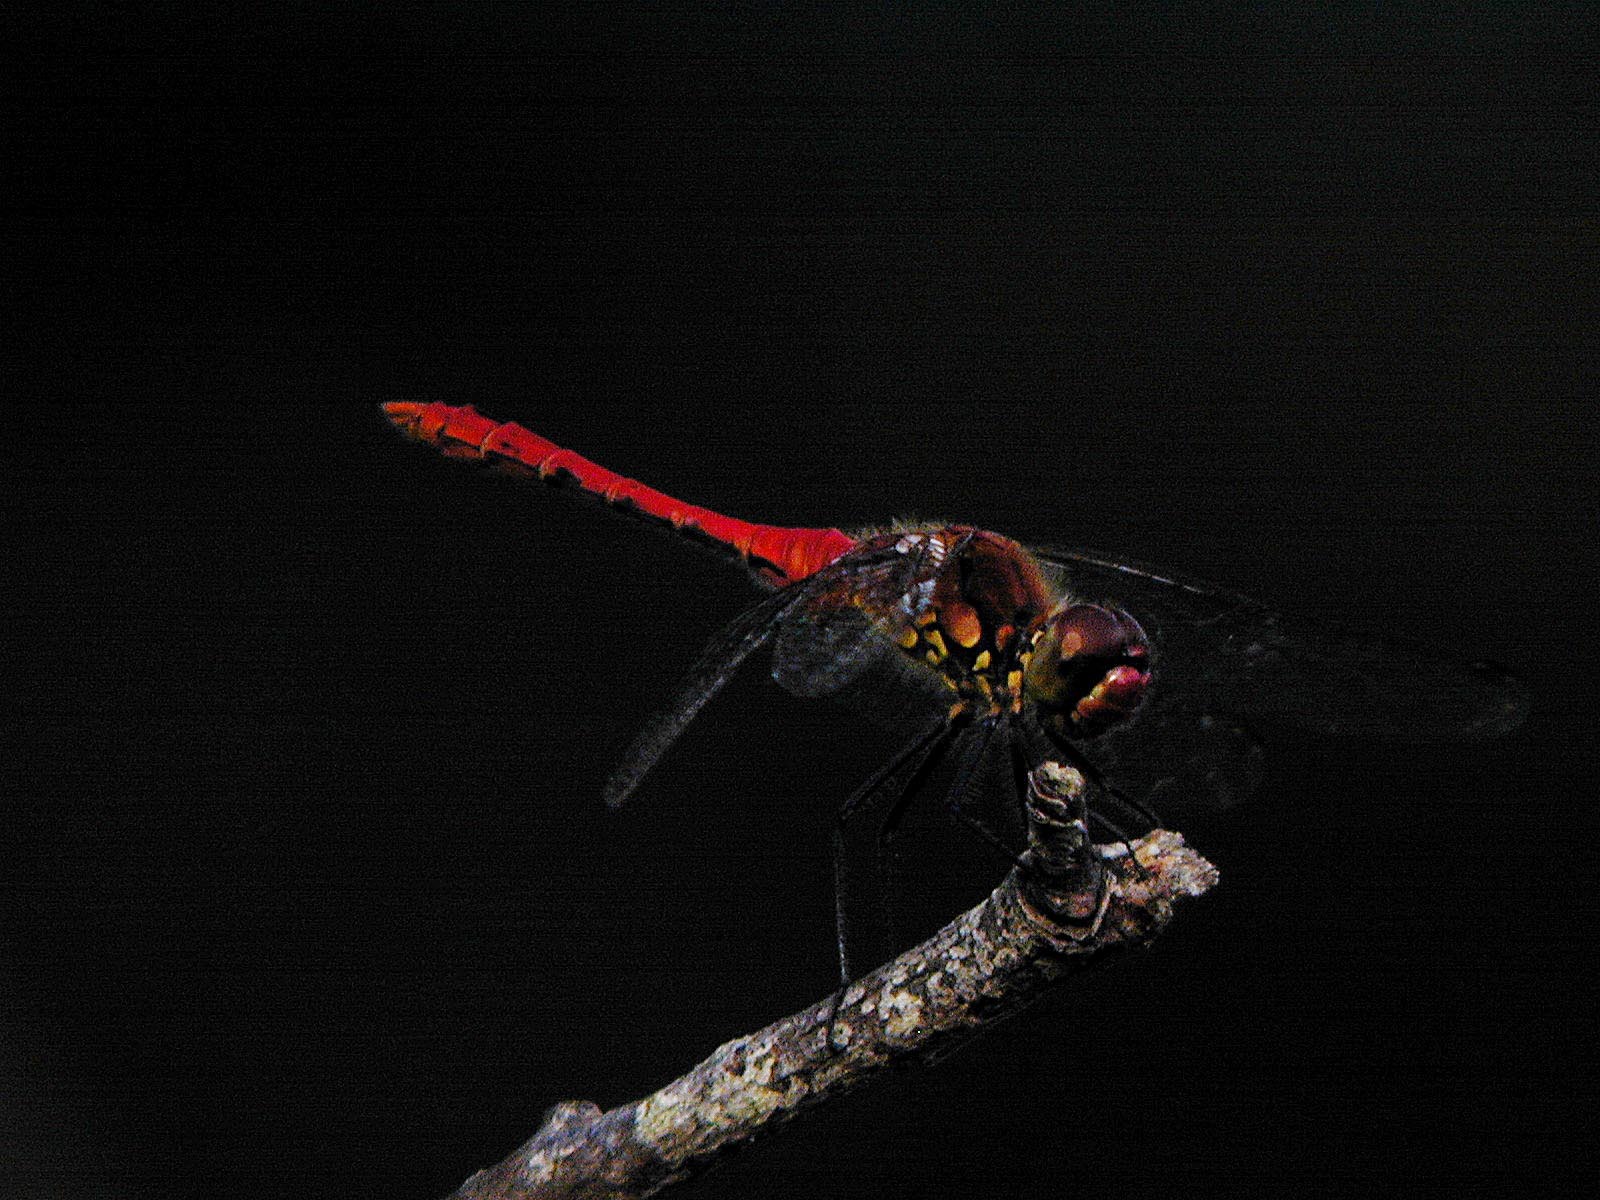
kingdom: Animalia
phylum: Arthropoda
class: Insecta
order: Odonata
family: Libellulidae
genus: Sympetrum
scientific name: Sympetrum sanguineum
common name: Ruddy darter
